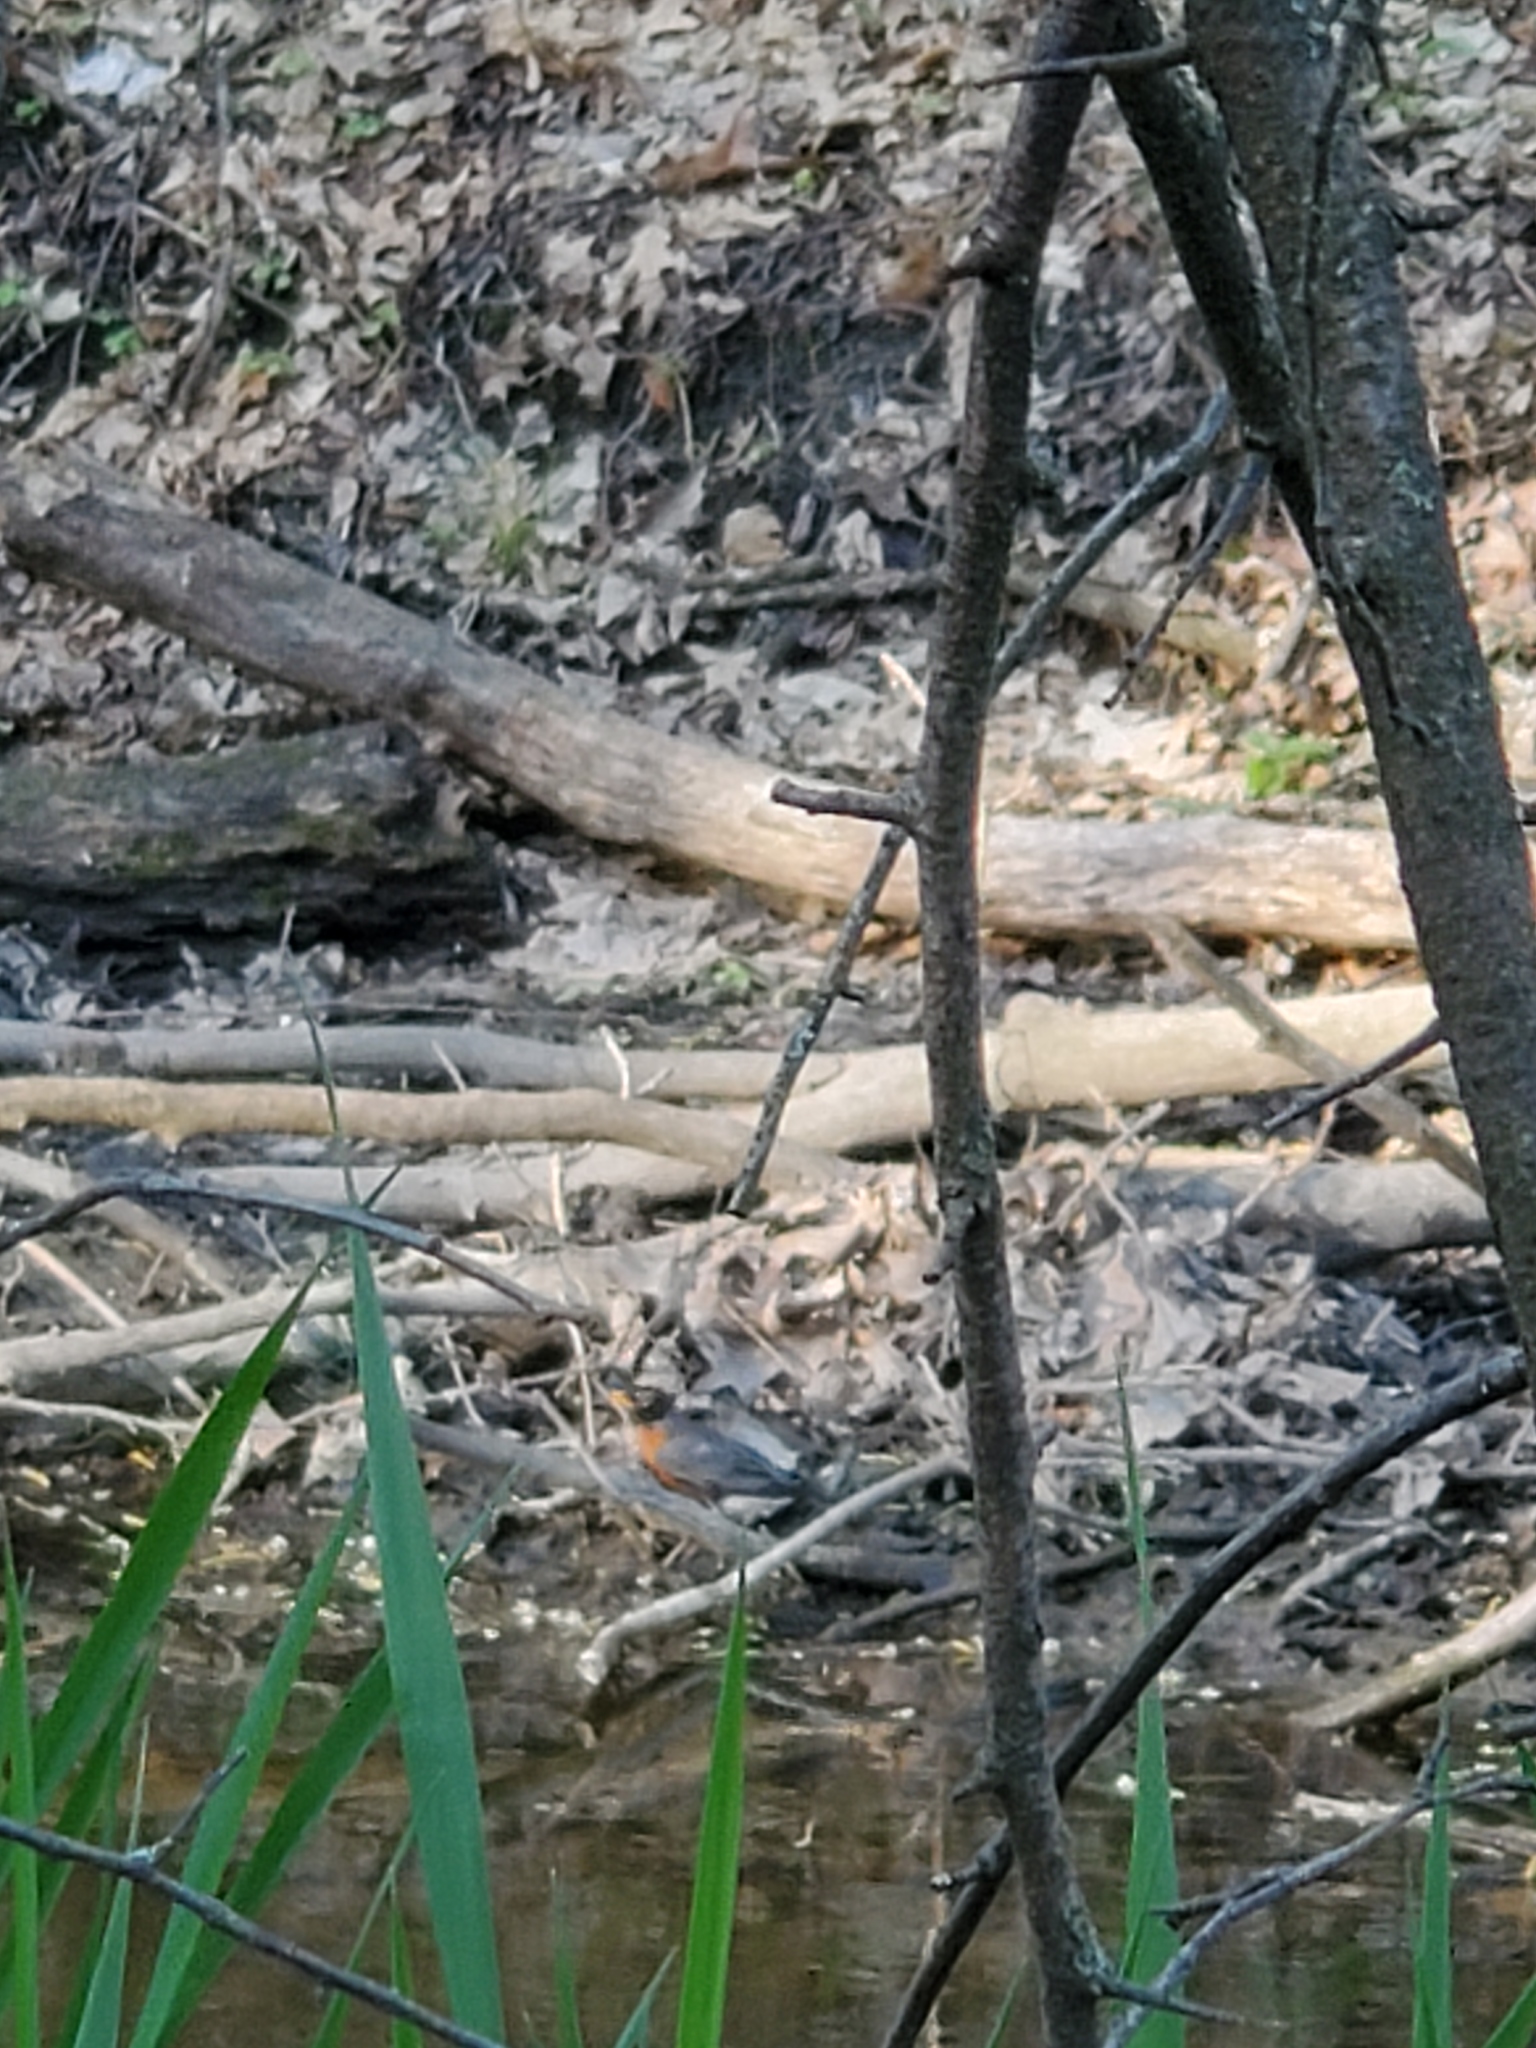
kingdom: Animalia
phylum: Chordata
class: Aves
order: Passeriformes
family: Turdidae
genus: Turdus
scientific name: Turdus migratorius
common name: American robin
